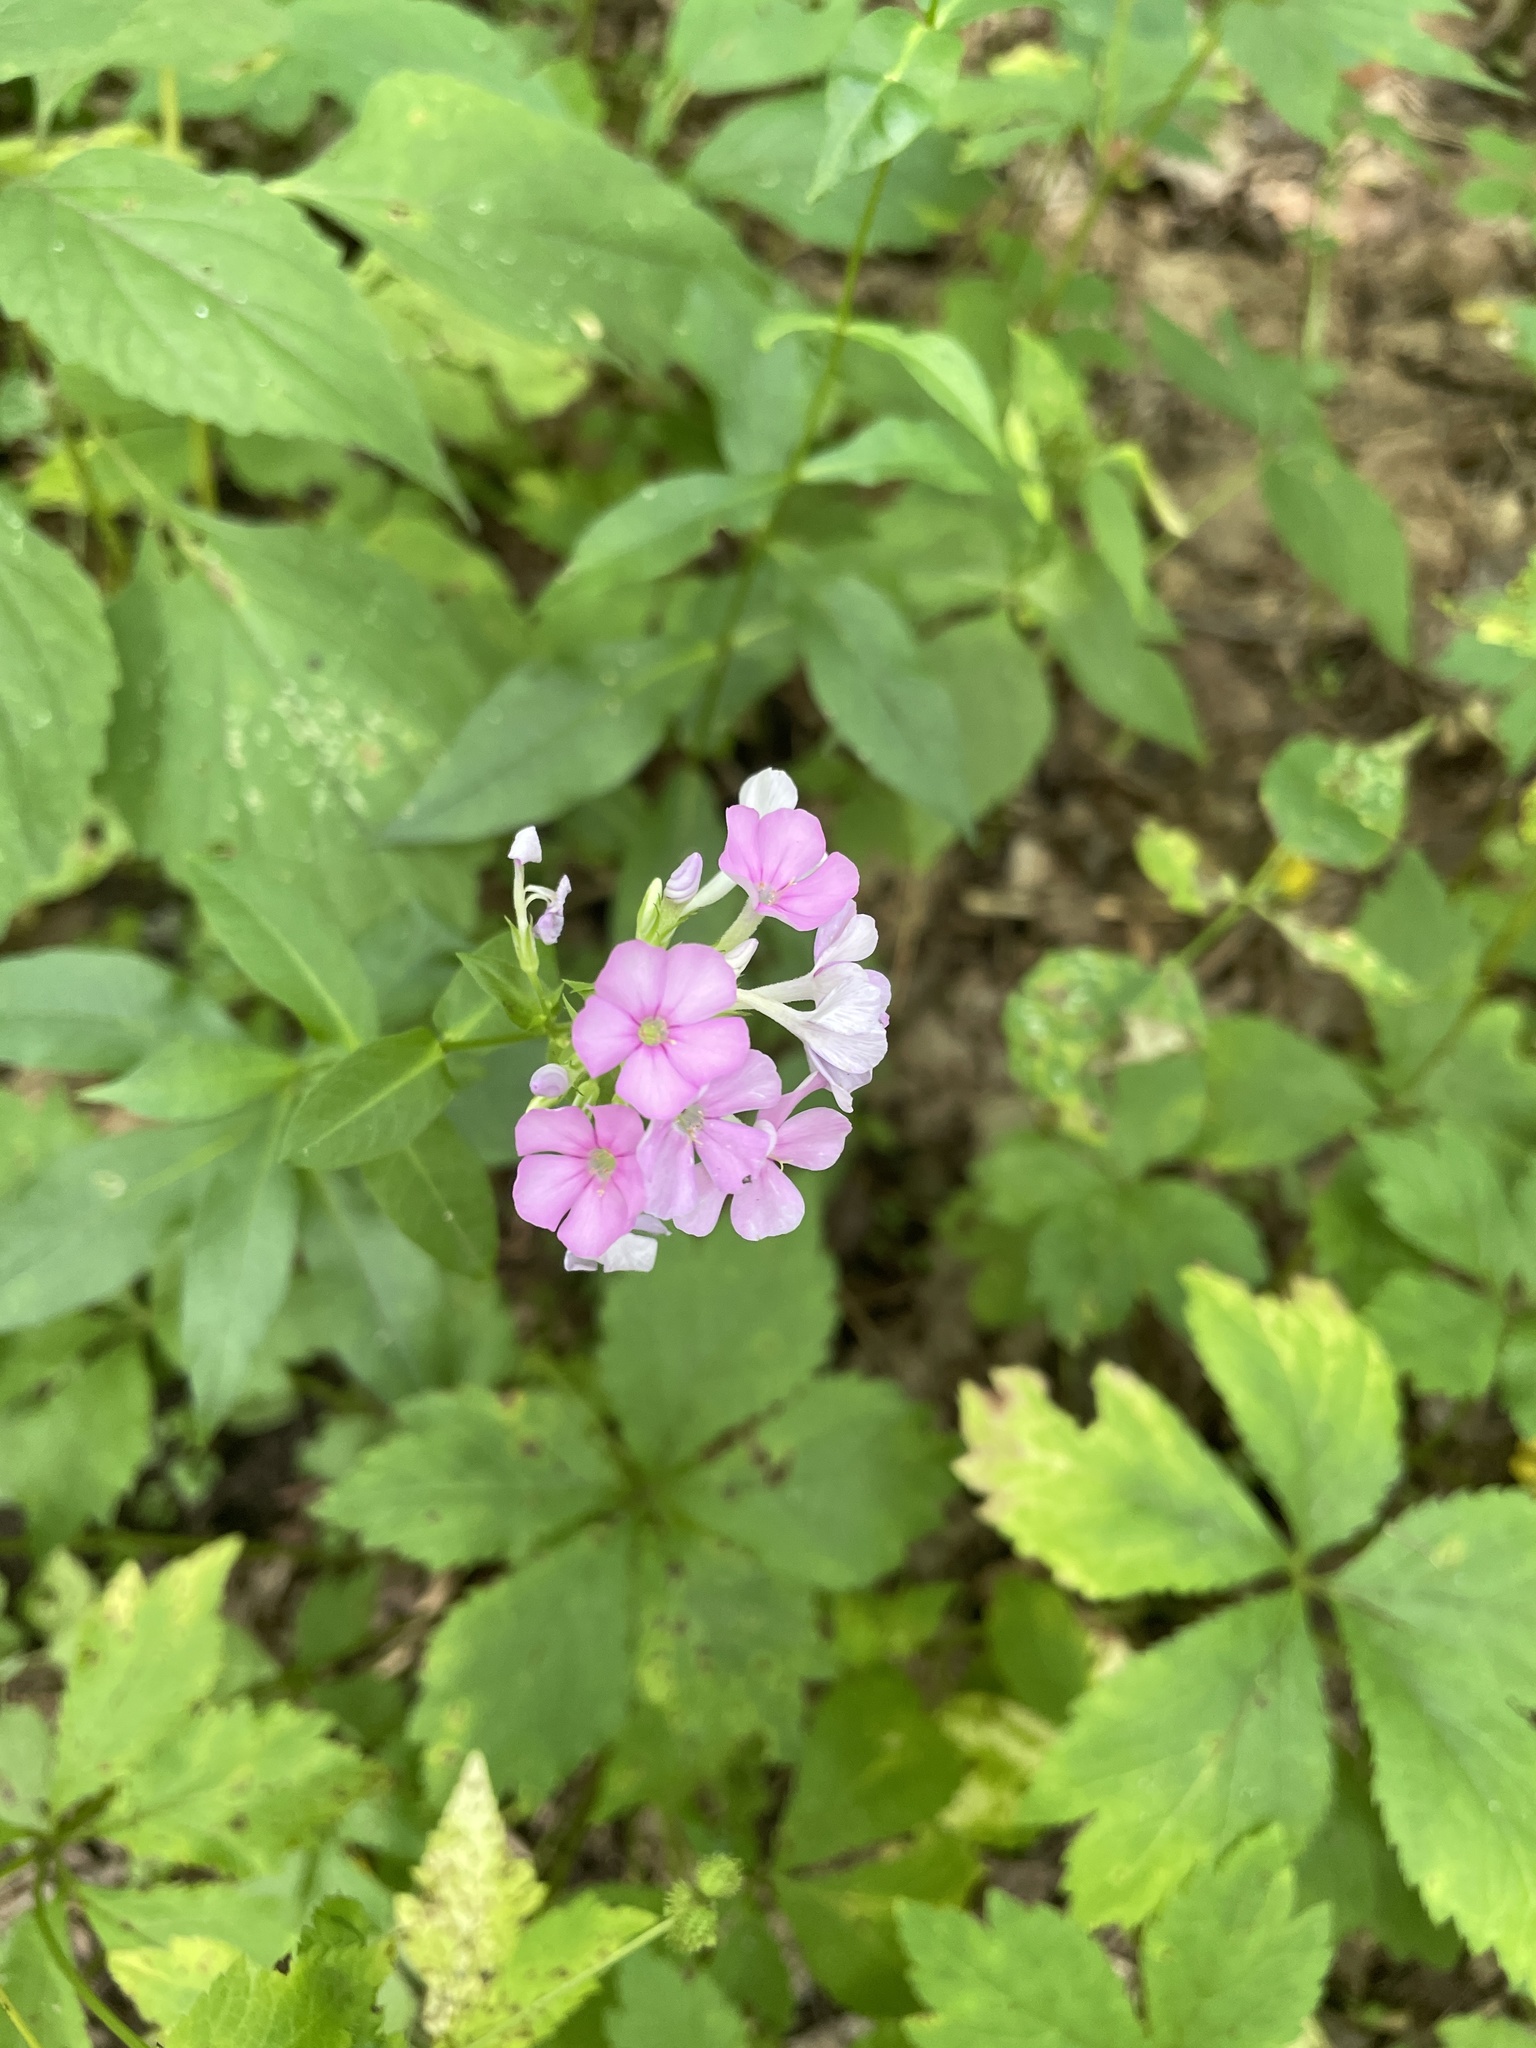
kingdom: Plantae
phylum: Tracheophyta
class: Magnoliopsida
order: Ericales
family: Polemoniaceae
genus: Phlox
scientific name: Phlox paniculata
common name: Fall phlox
